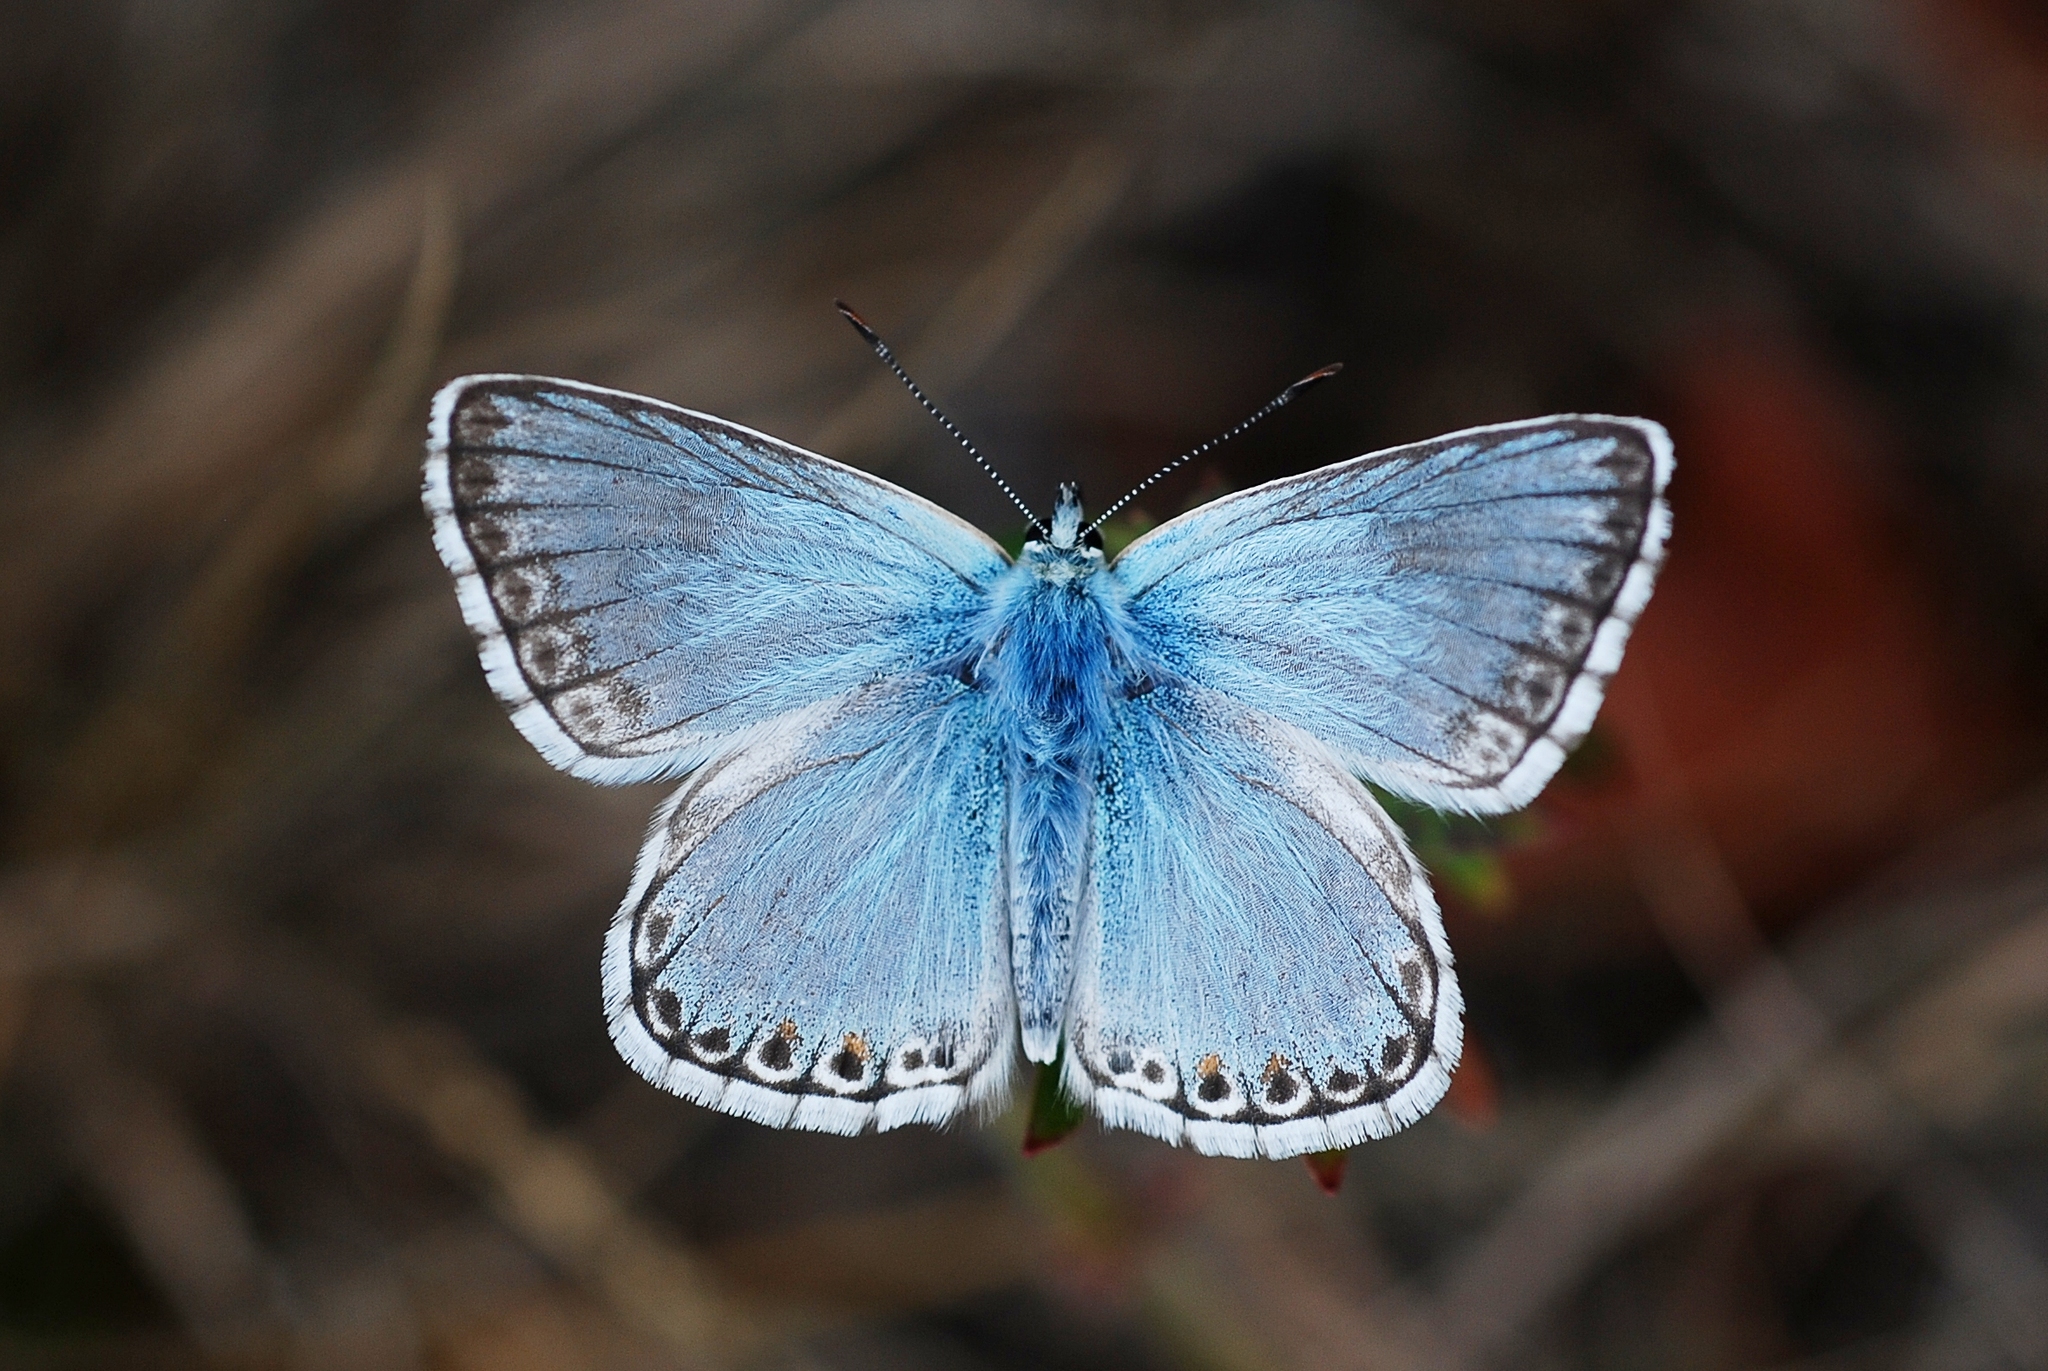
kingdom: Animalia
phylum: Arthropoda
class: Insecta
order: Lepidoptera
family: Lycaenidae
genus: Lysandra
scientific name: Lysandra coridon
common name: Chalkhill blue
